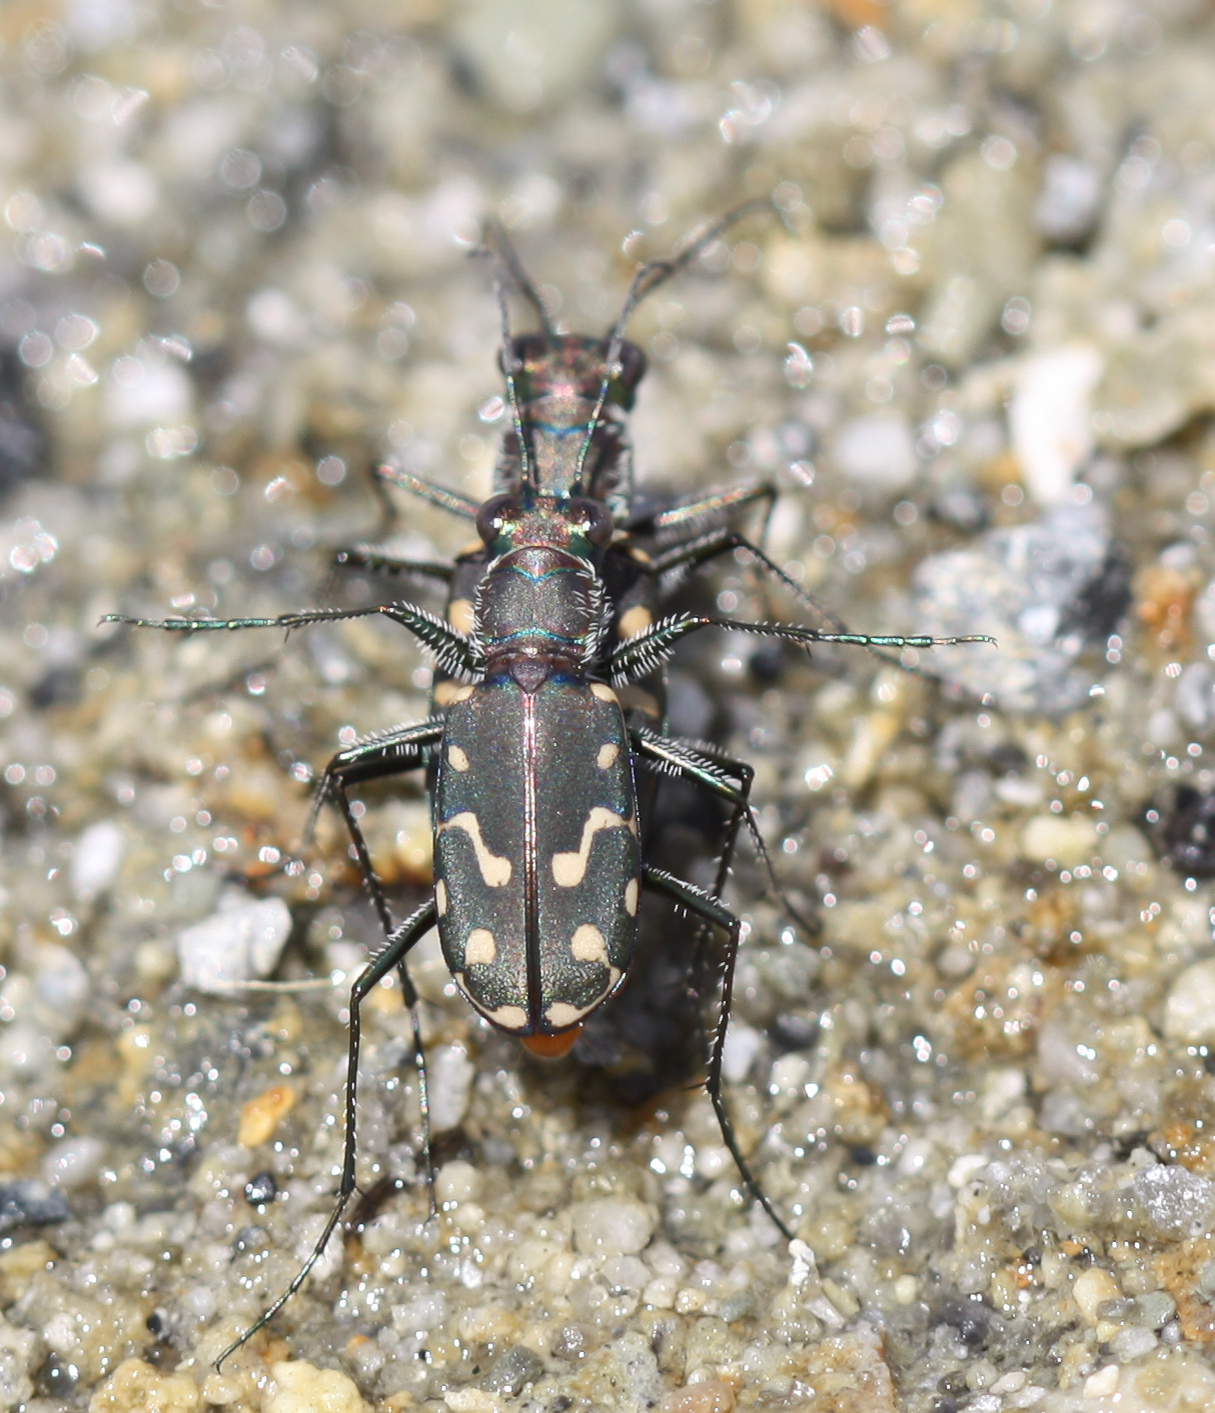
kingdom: Animalia
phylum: Arthropoda
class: Insecta
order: Coleoptera
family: Carabidae
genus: Cicindela
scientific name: Cicindela hemorrhagica
